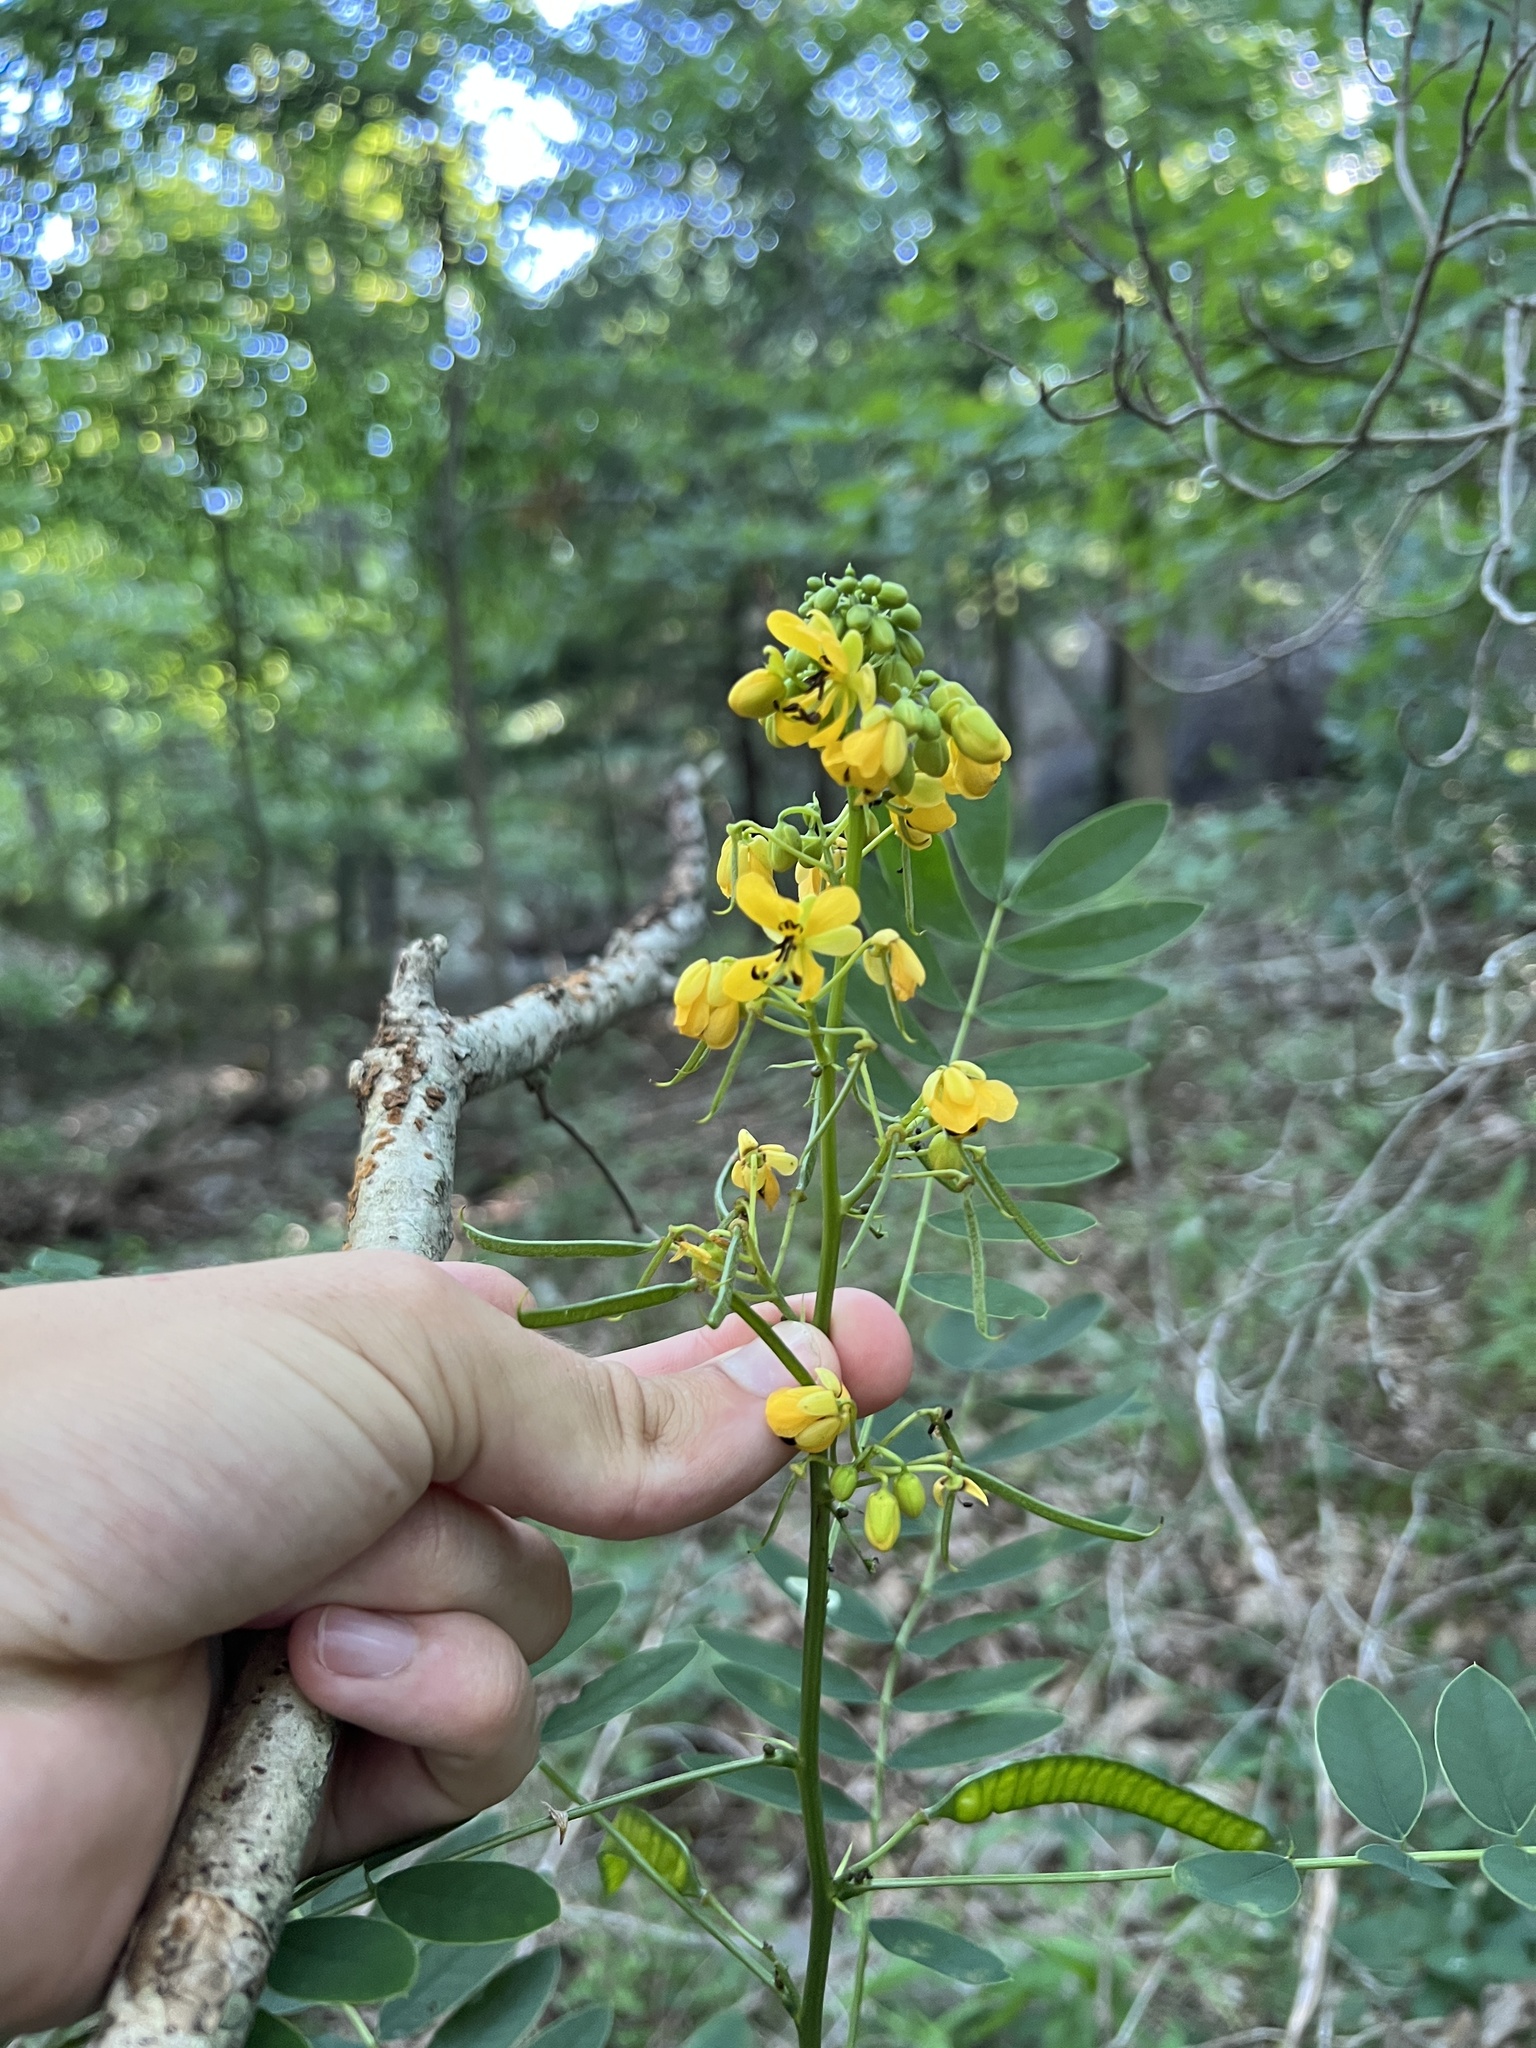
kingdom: Plantae
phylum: Tracheophyta
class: Magnoliopsida
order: Fabales
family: Fabaceae
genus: Senna
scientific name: Senna marilandica
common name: American senna
